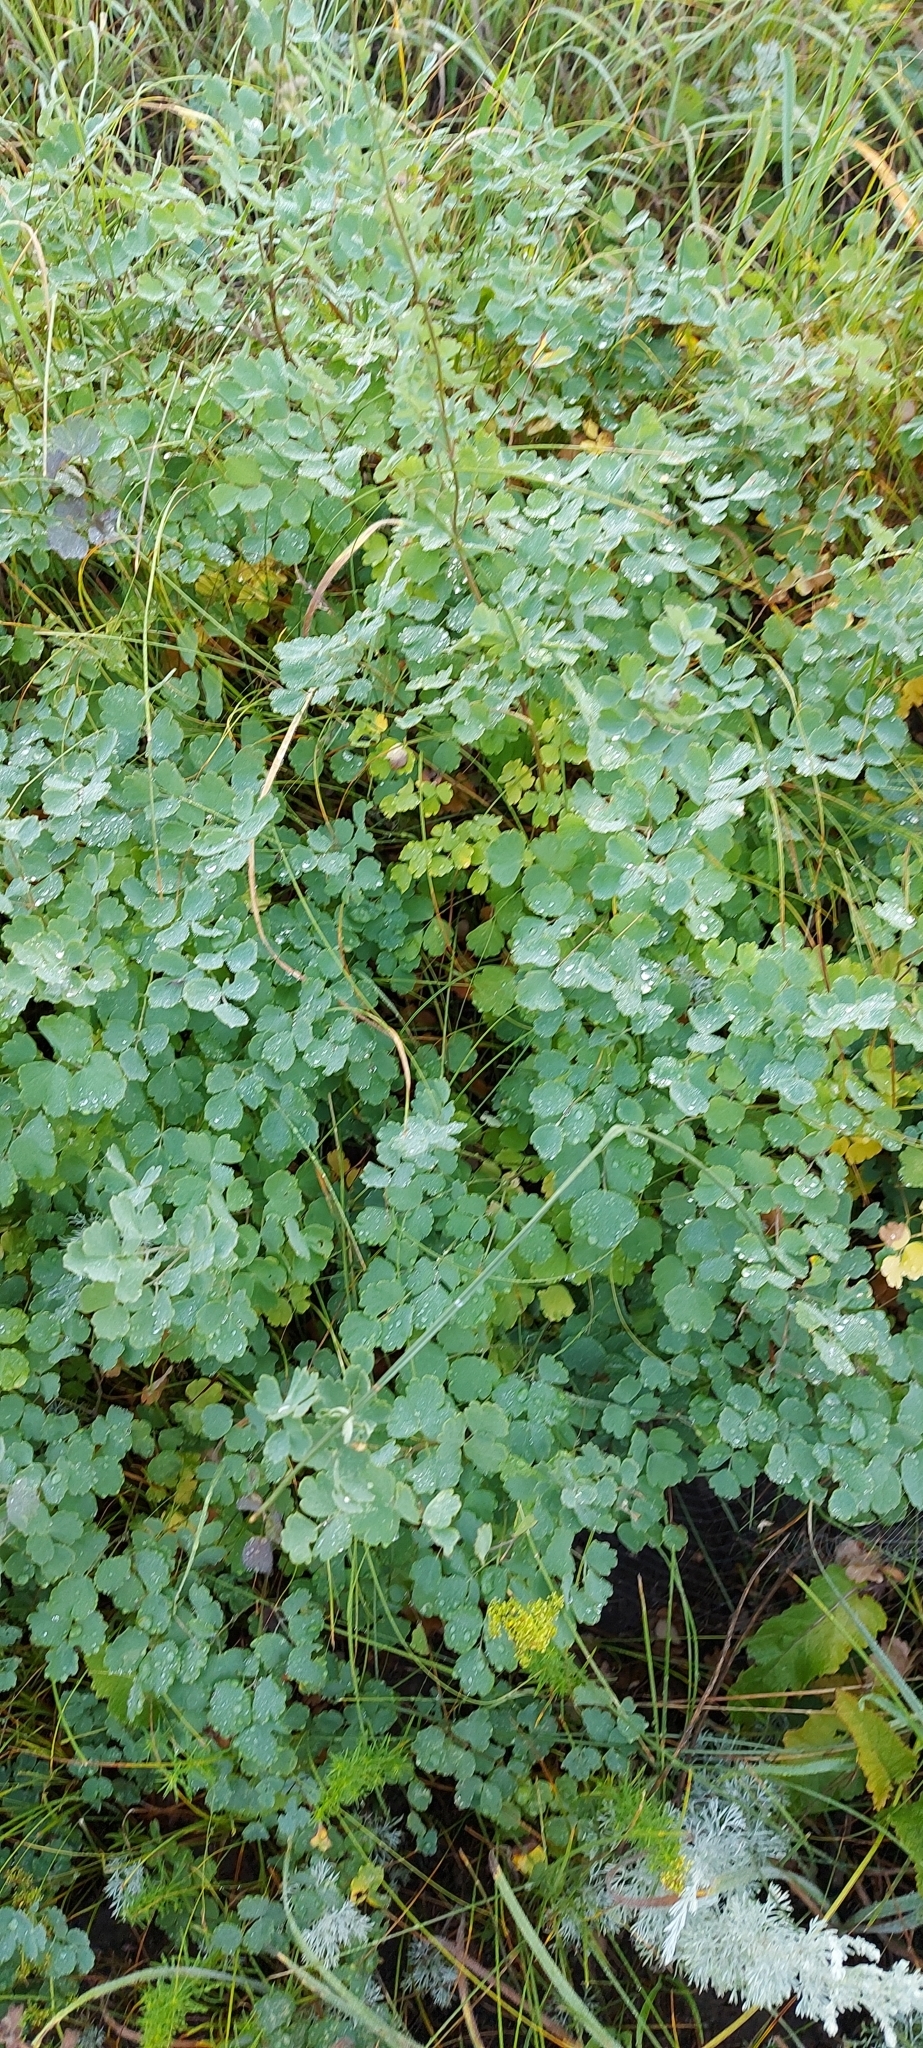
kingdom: Plantae
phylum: Tracheophyta
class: Magnoliopsida
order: Ranunculales
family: Ranunculaceae
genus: Thalictrum
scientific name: Thalictrum minus
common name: Lesser meadow-rue
